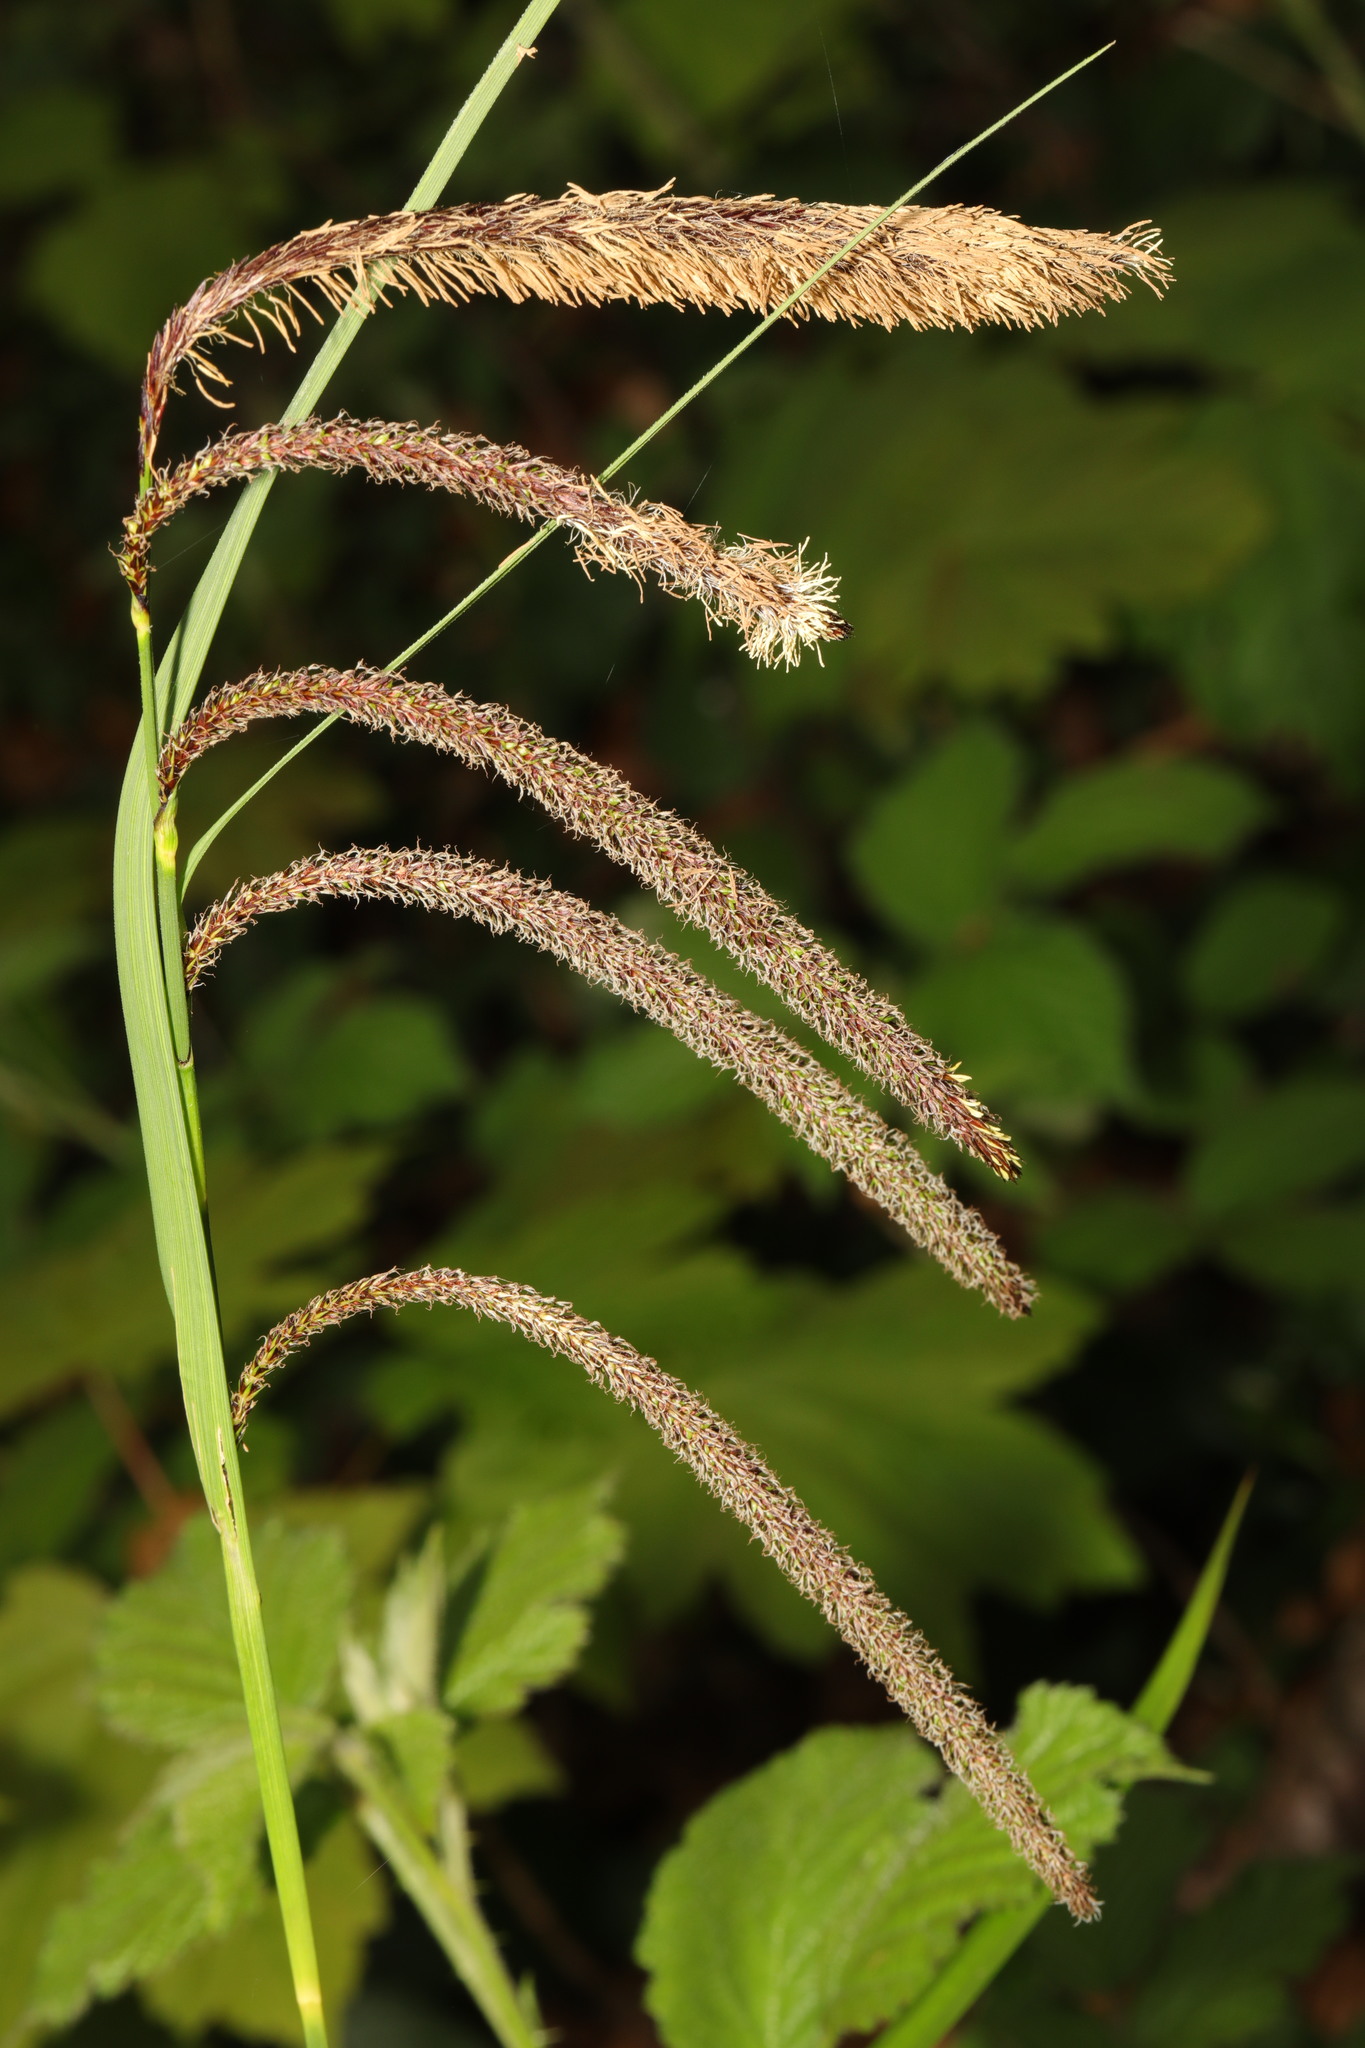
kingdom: Plantae
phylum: Tracheophyta
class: Liliopsida
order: Poales
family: Cyperaceae
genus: Carex
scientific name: Carex pendula
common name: Pendulous sedge
